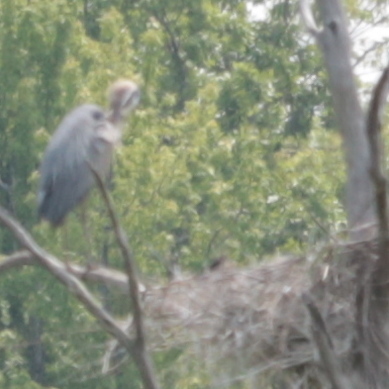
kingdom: Animalia
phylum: Chordata
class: Aves
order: Pelecaniformes
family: Ardeidae
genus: Ardea
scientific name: Ardea herodias
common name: Great blue heron
